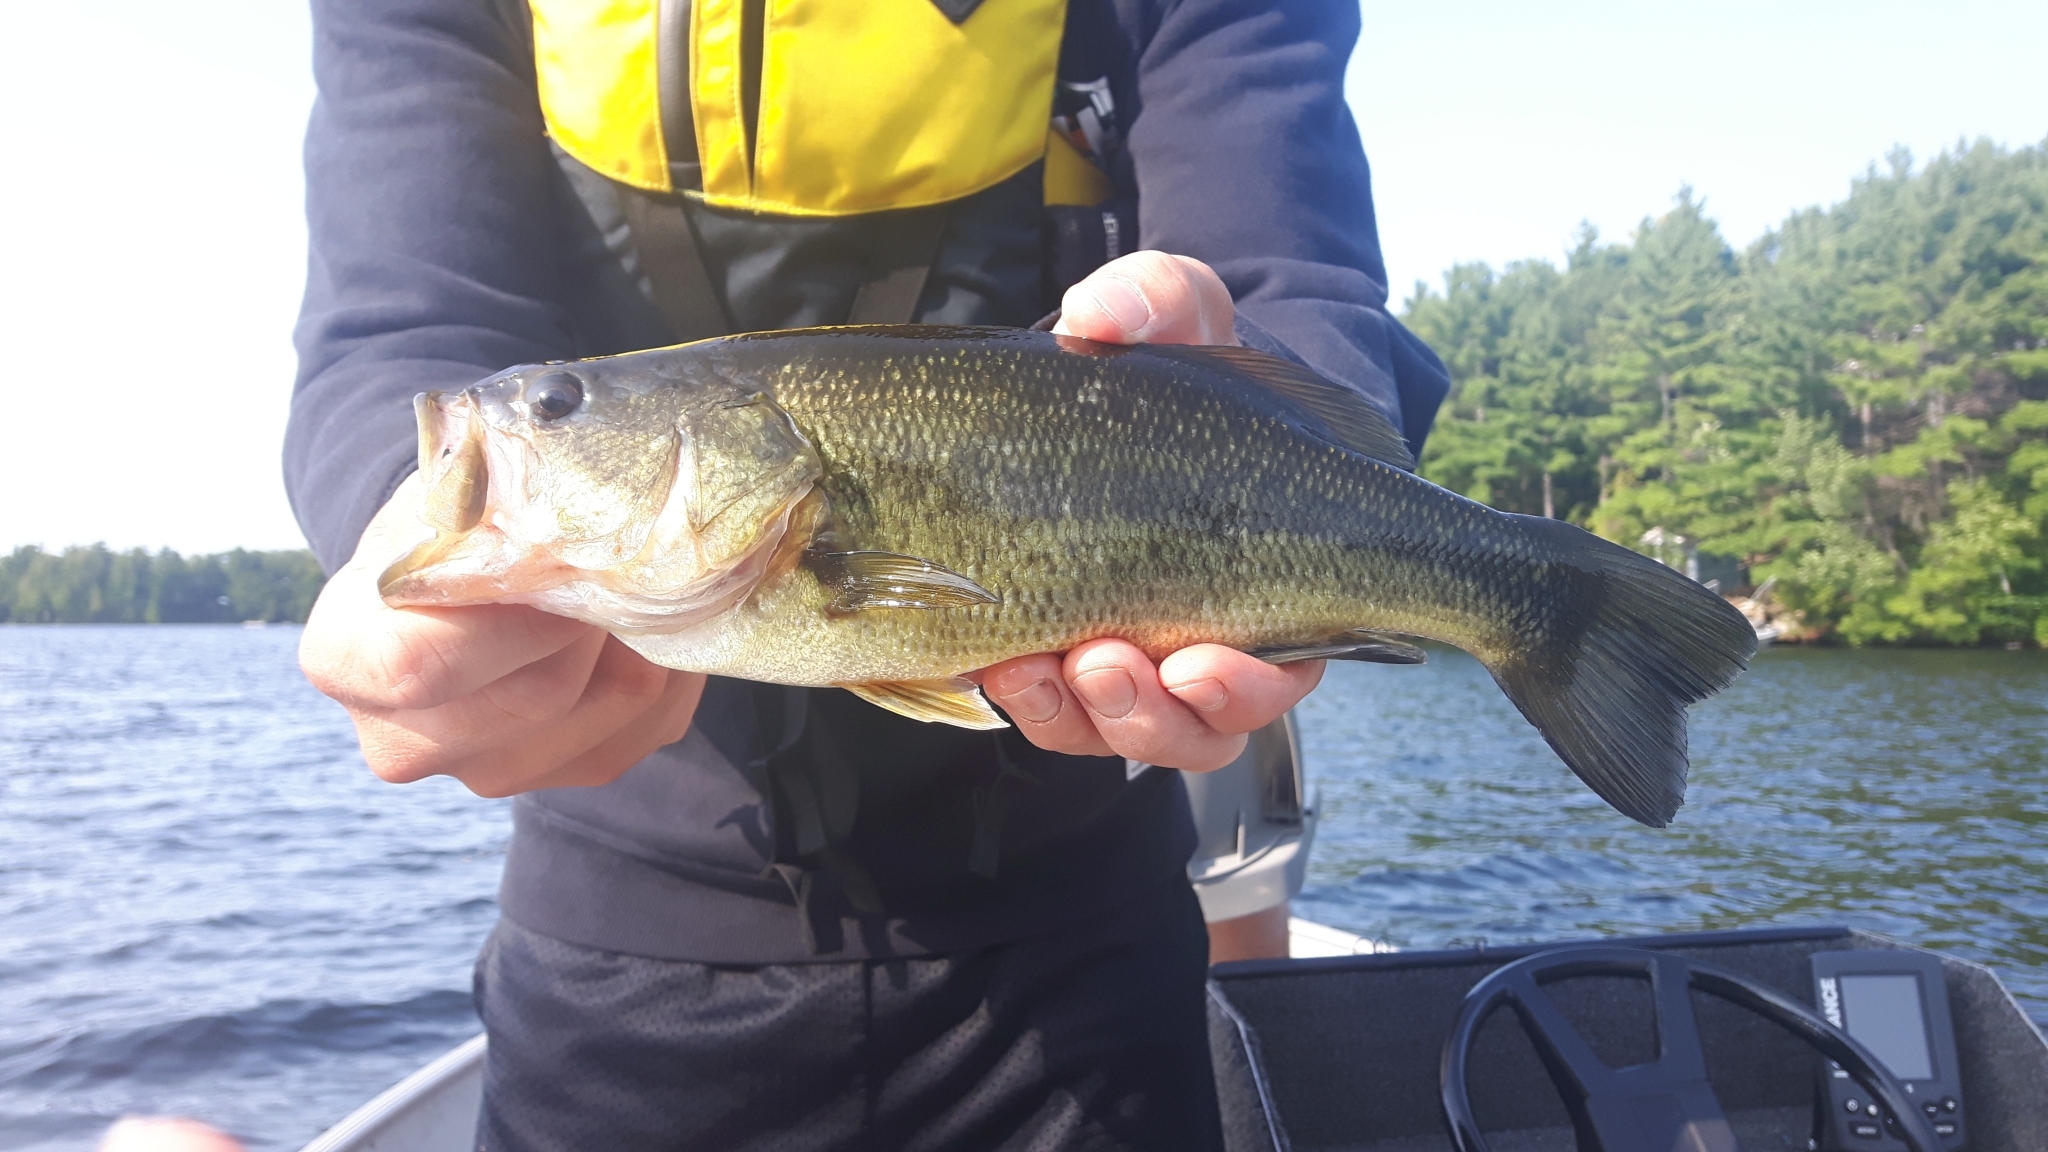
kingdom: Animalia
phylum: Chordata
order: Perciformes
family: Centrarchidae
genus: Micropterus
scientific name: Micropterus
